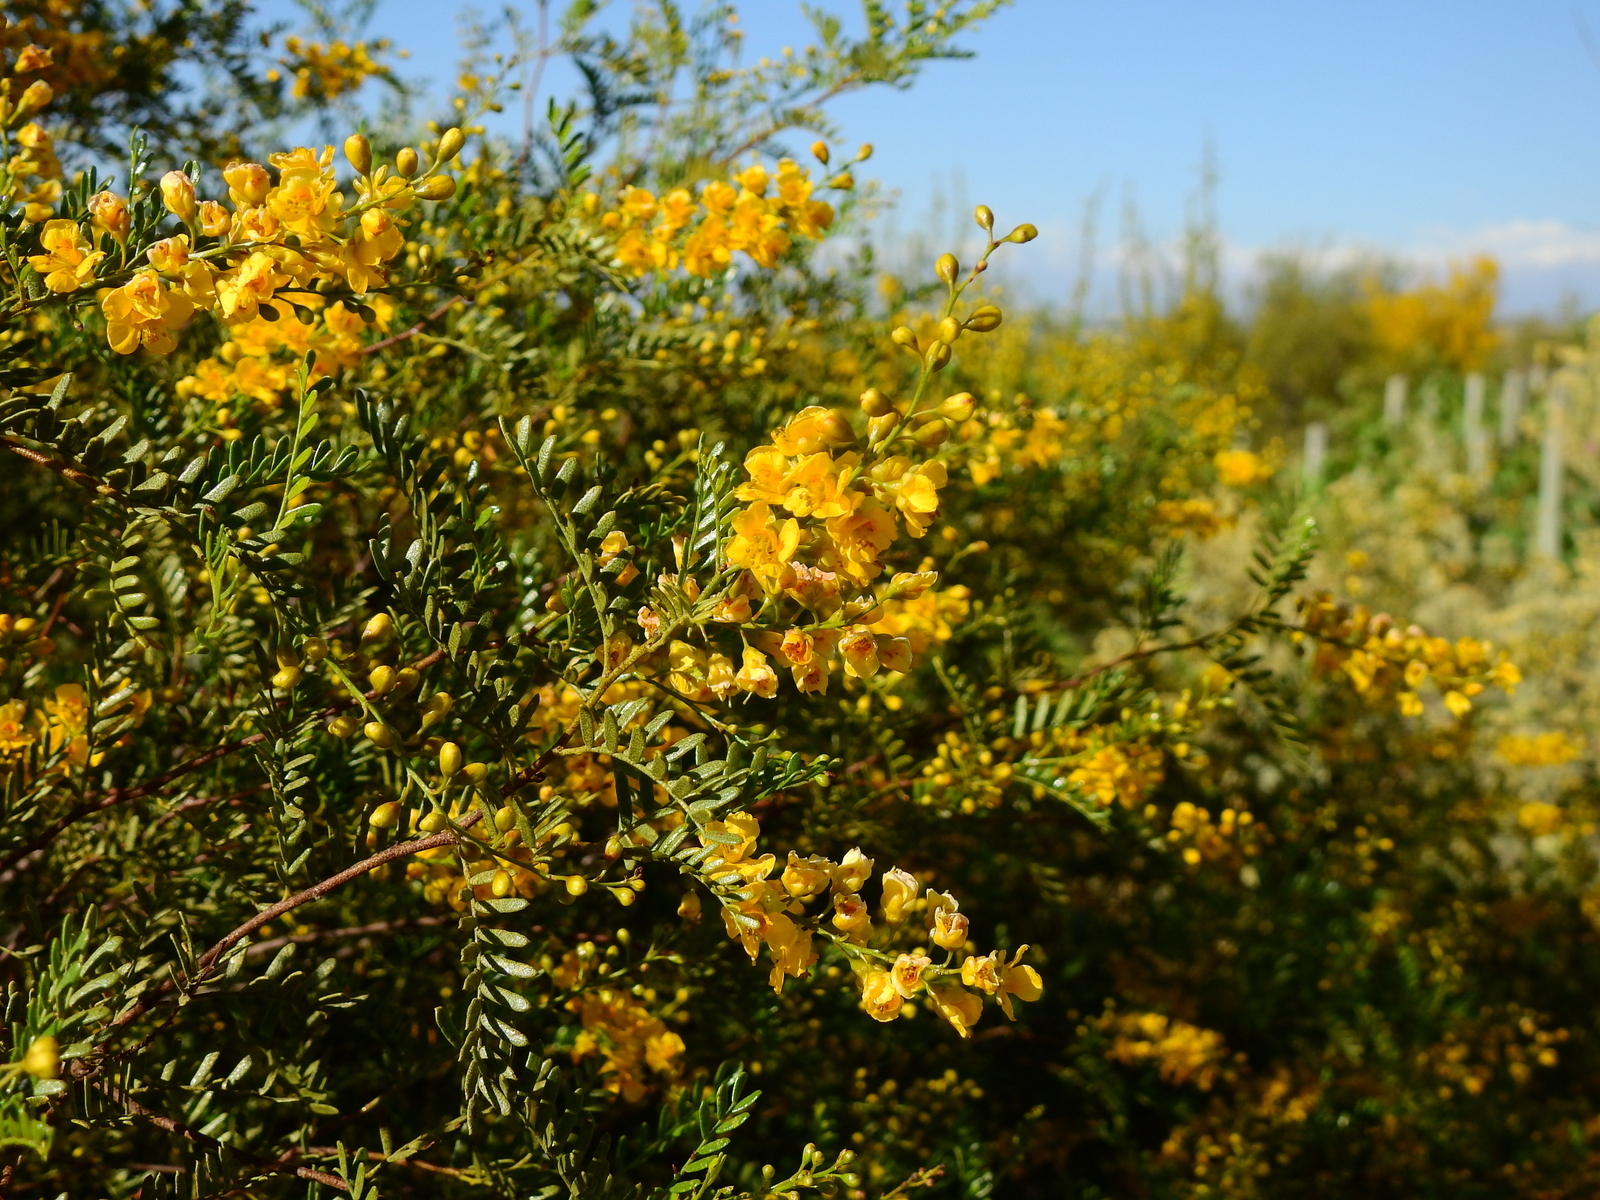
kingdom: Plantae
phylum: Tracheophyta
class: Magnoliopsida
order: Fabales
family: Fabaceae
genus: Zuccagnia
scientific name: Zuccagnia punctata
